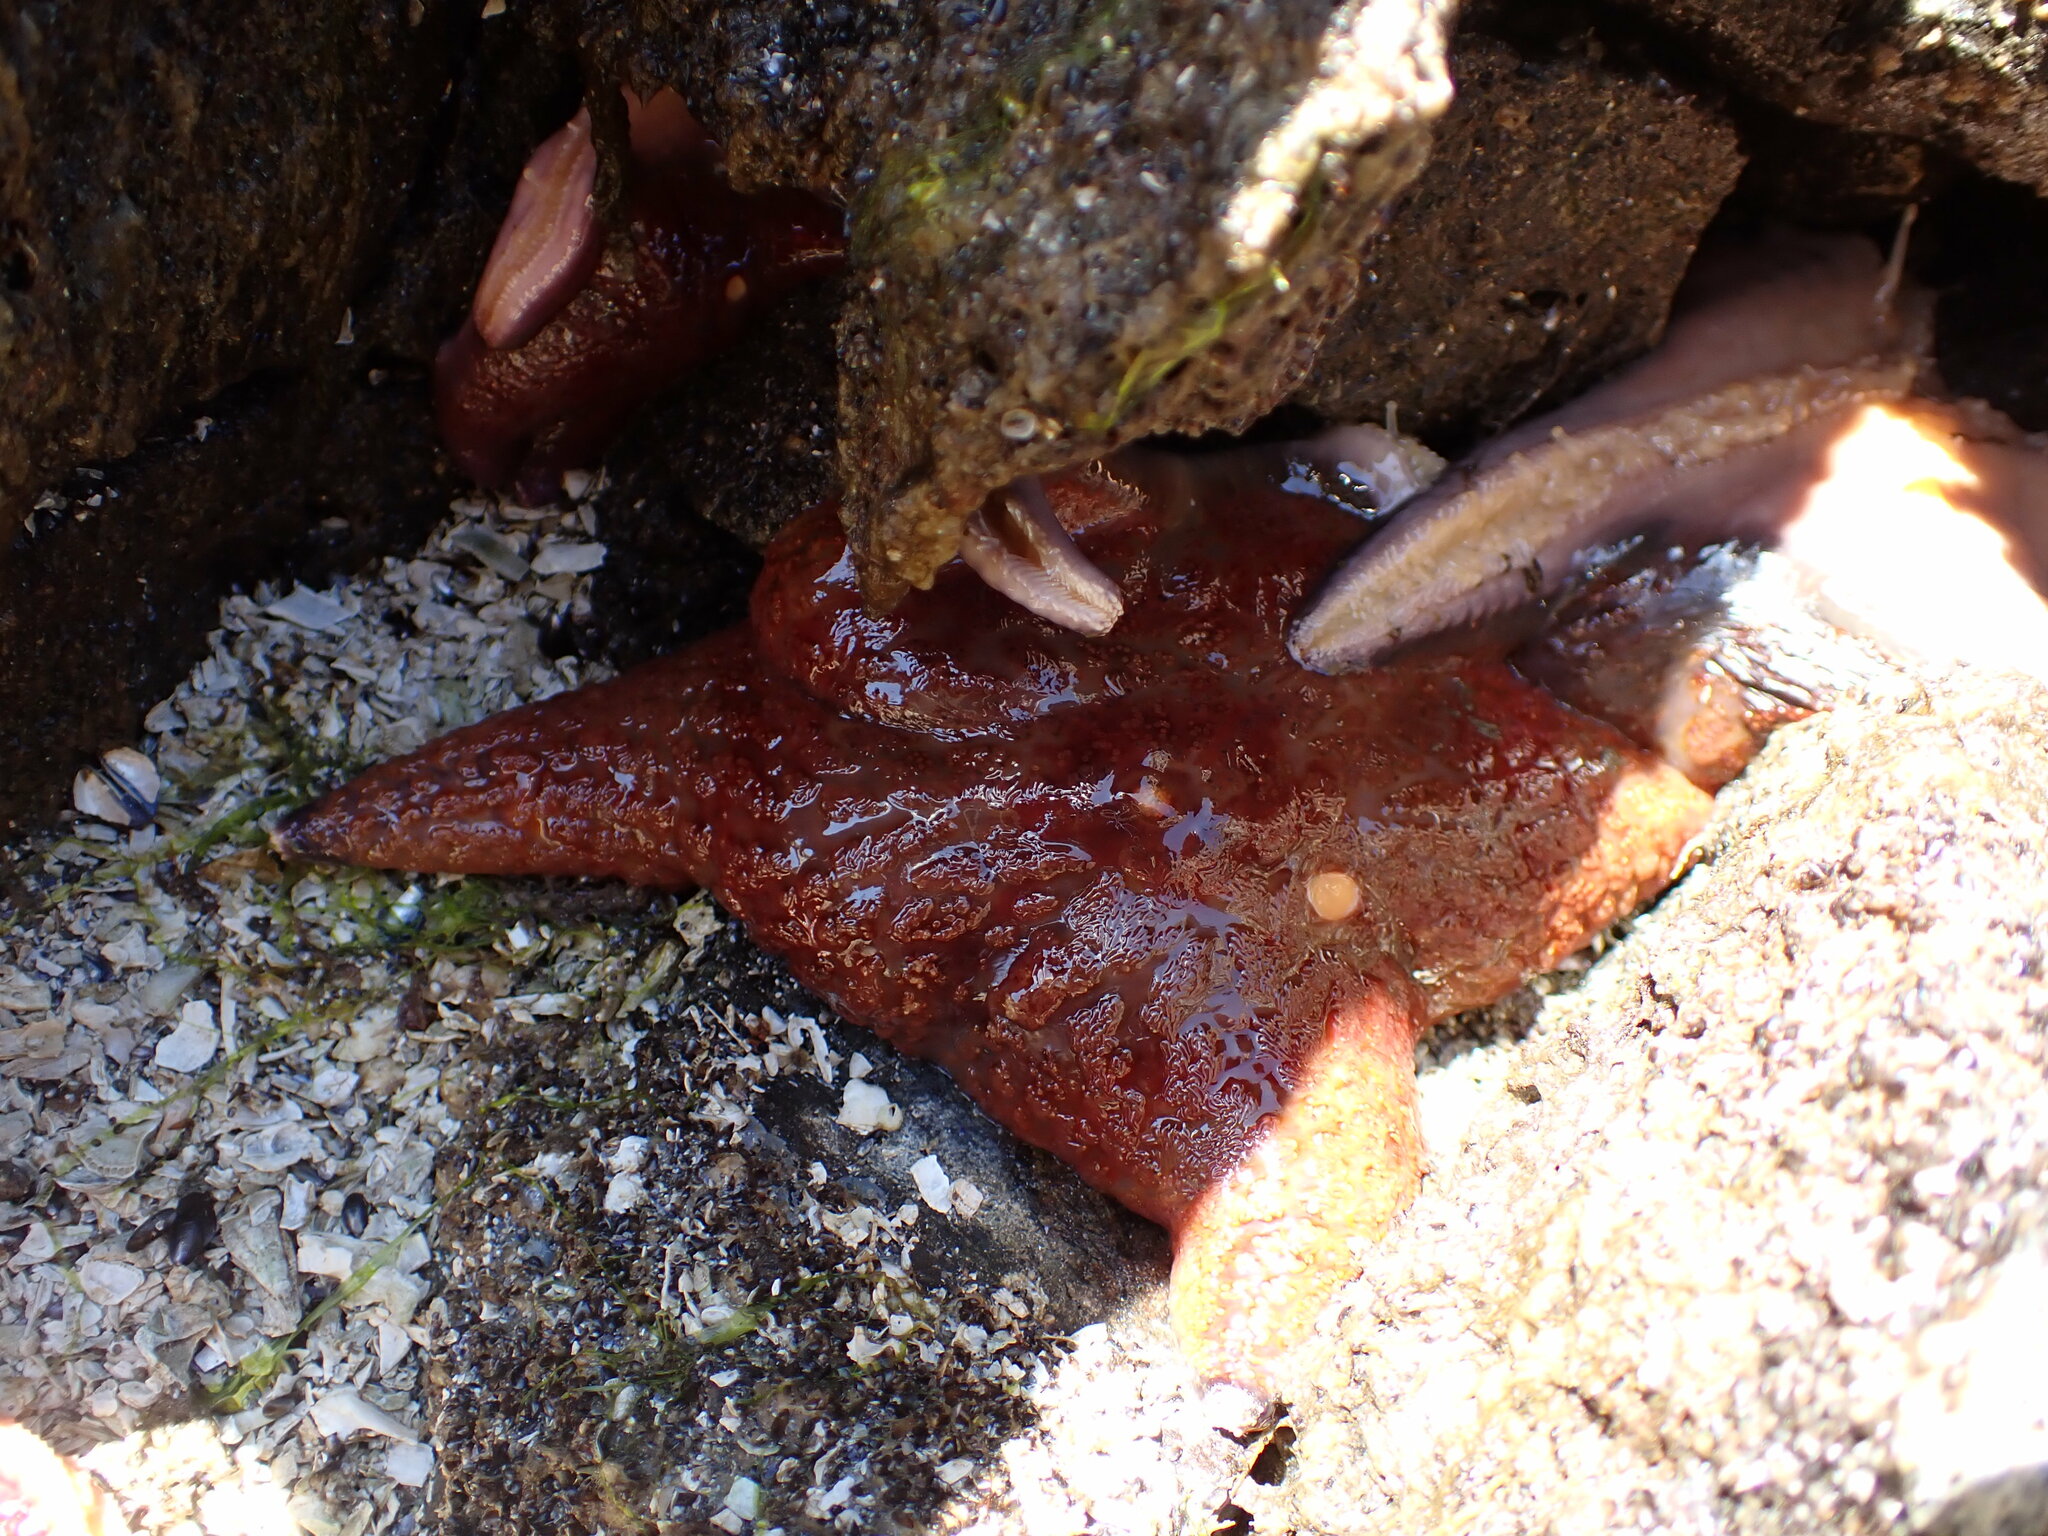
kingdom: Animalia
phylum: Echinodermata
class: Asteroidea
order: Valvatida
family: Asteropseidae
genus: Dermasterias
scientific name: Dermasterias imbricata
